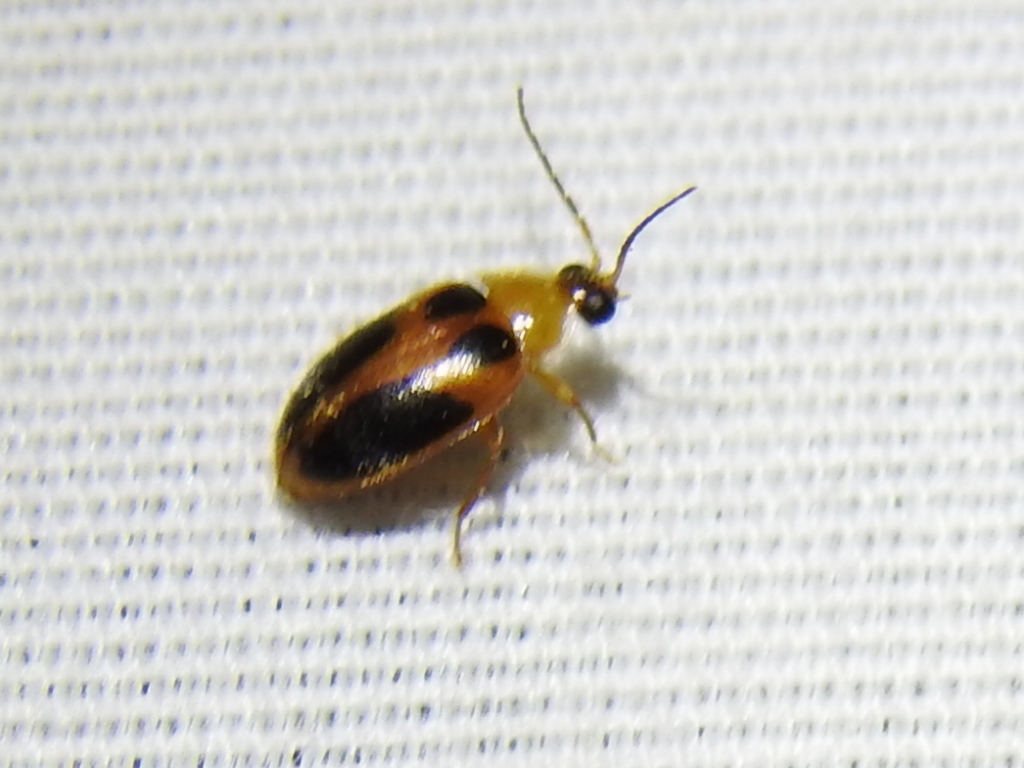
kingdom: Animalia
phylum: Arthropoda
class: Insecta
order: Coleoptera
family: Scirtidae
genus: Sacodes
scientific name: Sacodes pulchella
